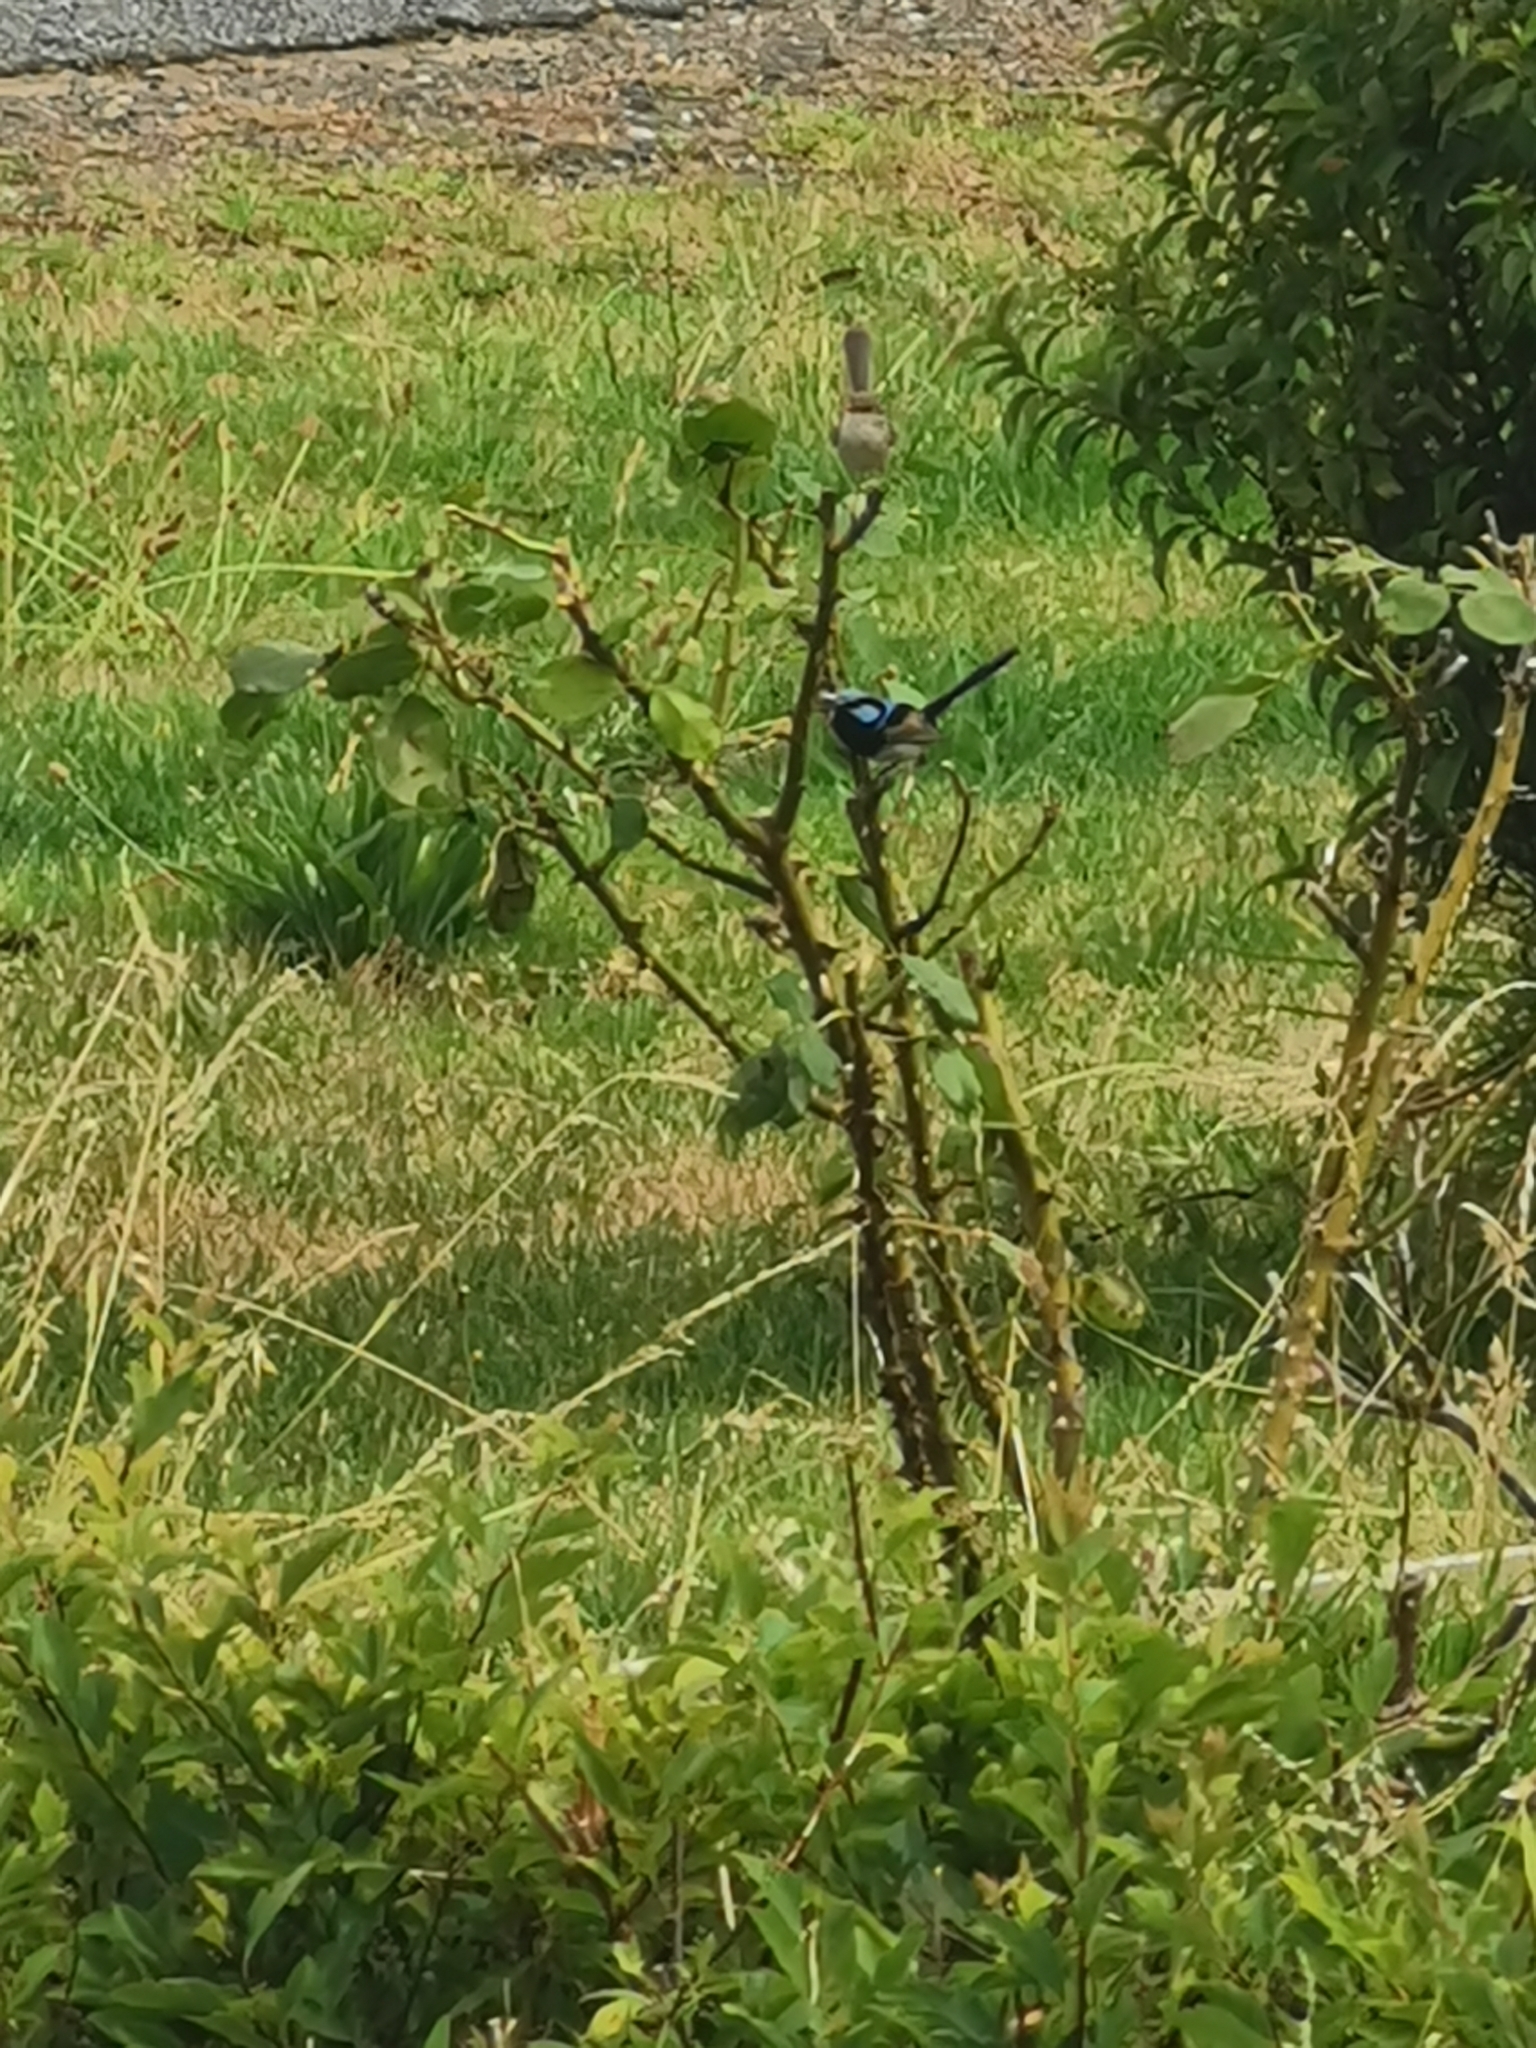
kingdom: Animalia
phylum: Chordata
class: Aves
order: Passeriformes
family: Maluridae
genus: Malurus
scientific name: Malurus cyaneus
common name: Superb fairywren
